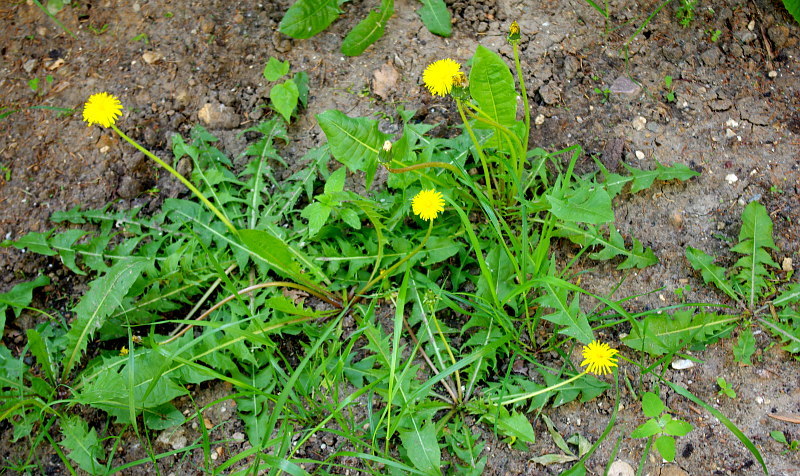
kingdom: Plantae
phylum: Tracheophyta
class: Magnoliopsida
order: Asterales
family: Asteraceae
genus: Taraxacum
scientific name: Taraxacum officinale
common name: Common dandelion
